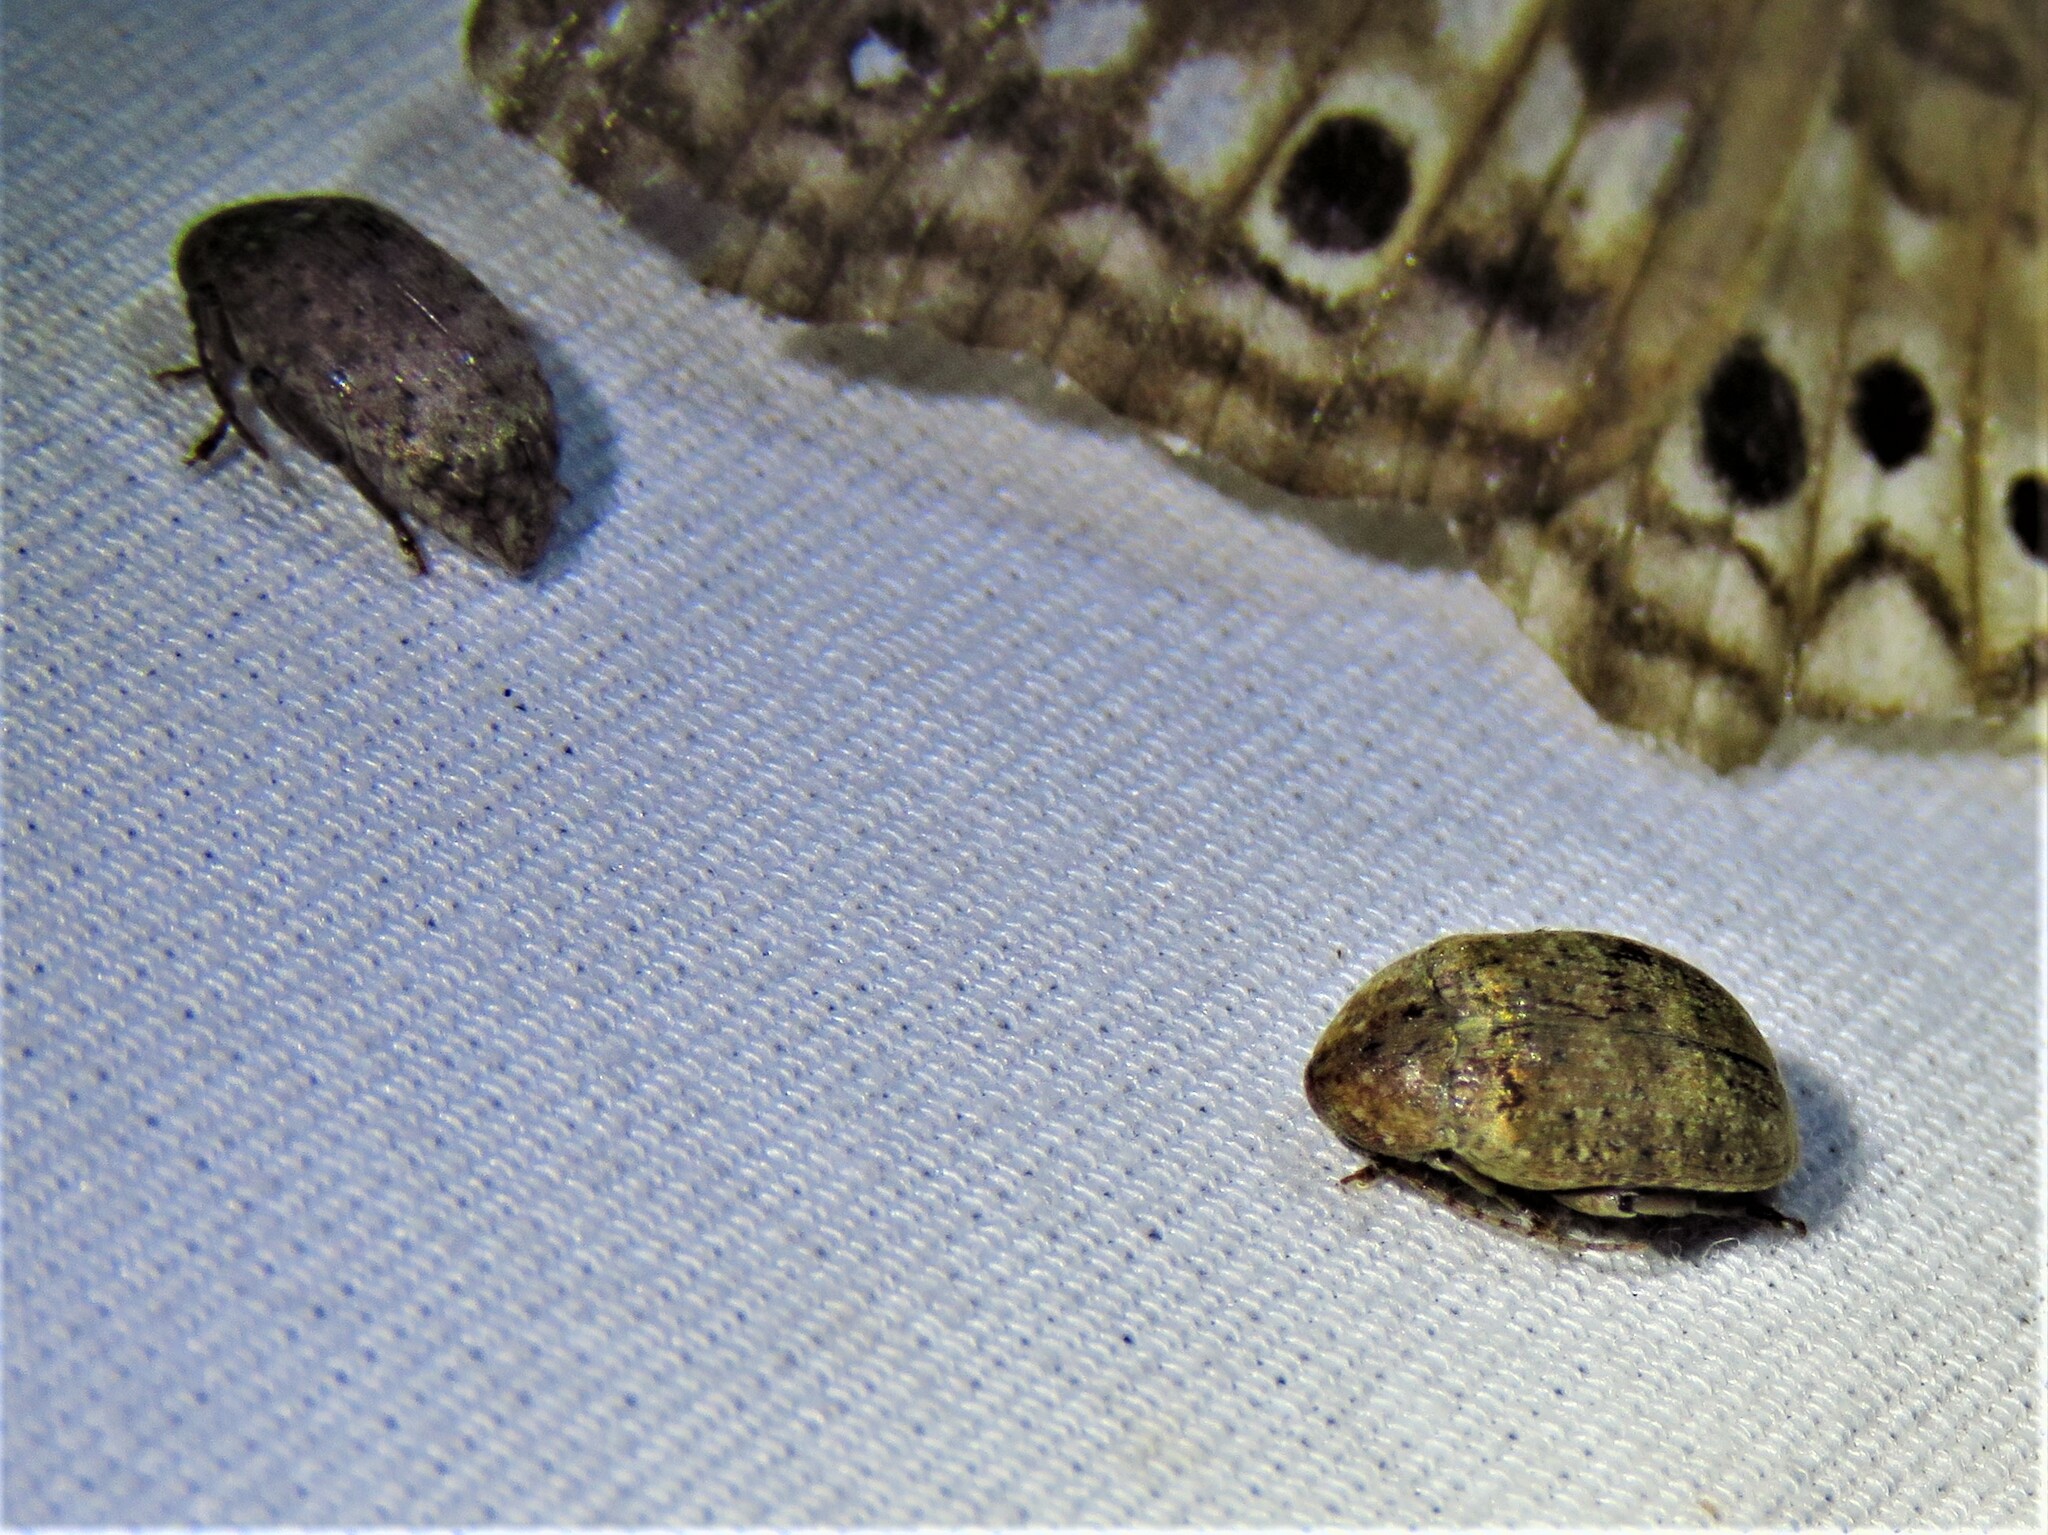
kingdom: Animalia
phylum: Arthropoda
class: Insecta
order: Coleoptera
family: Chrysomelidae
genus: Amblycerus
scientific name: Amblycerus robiniae
